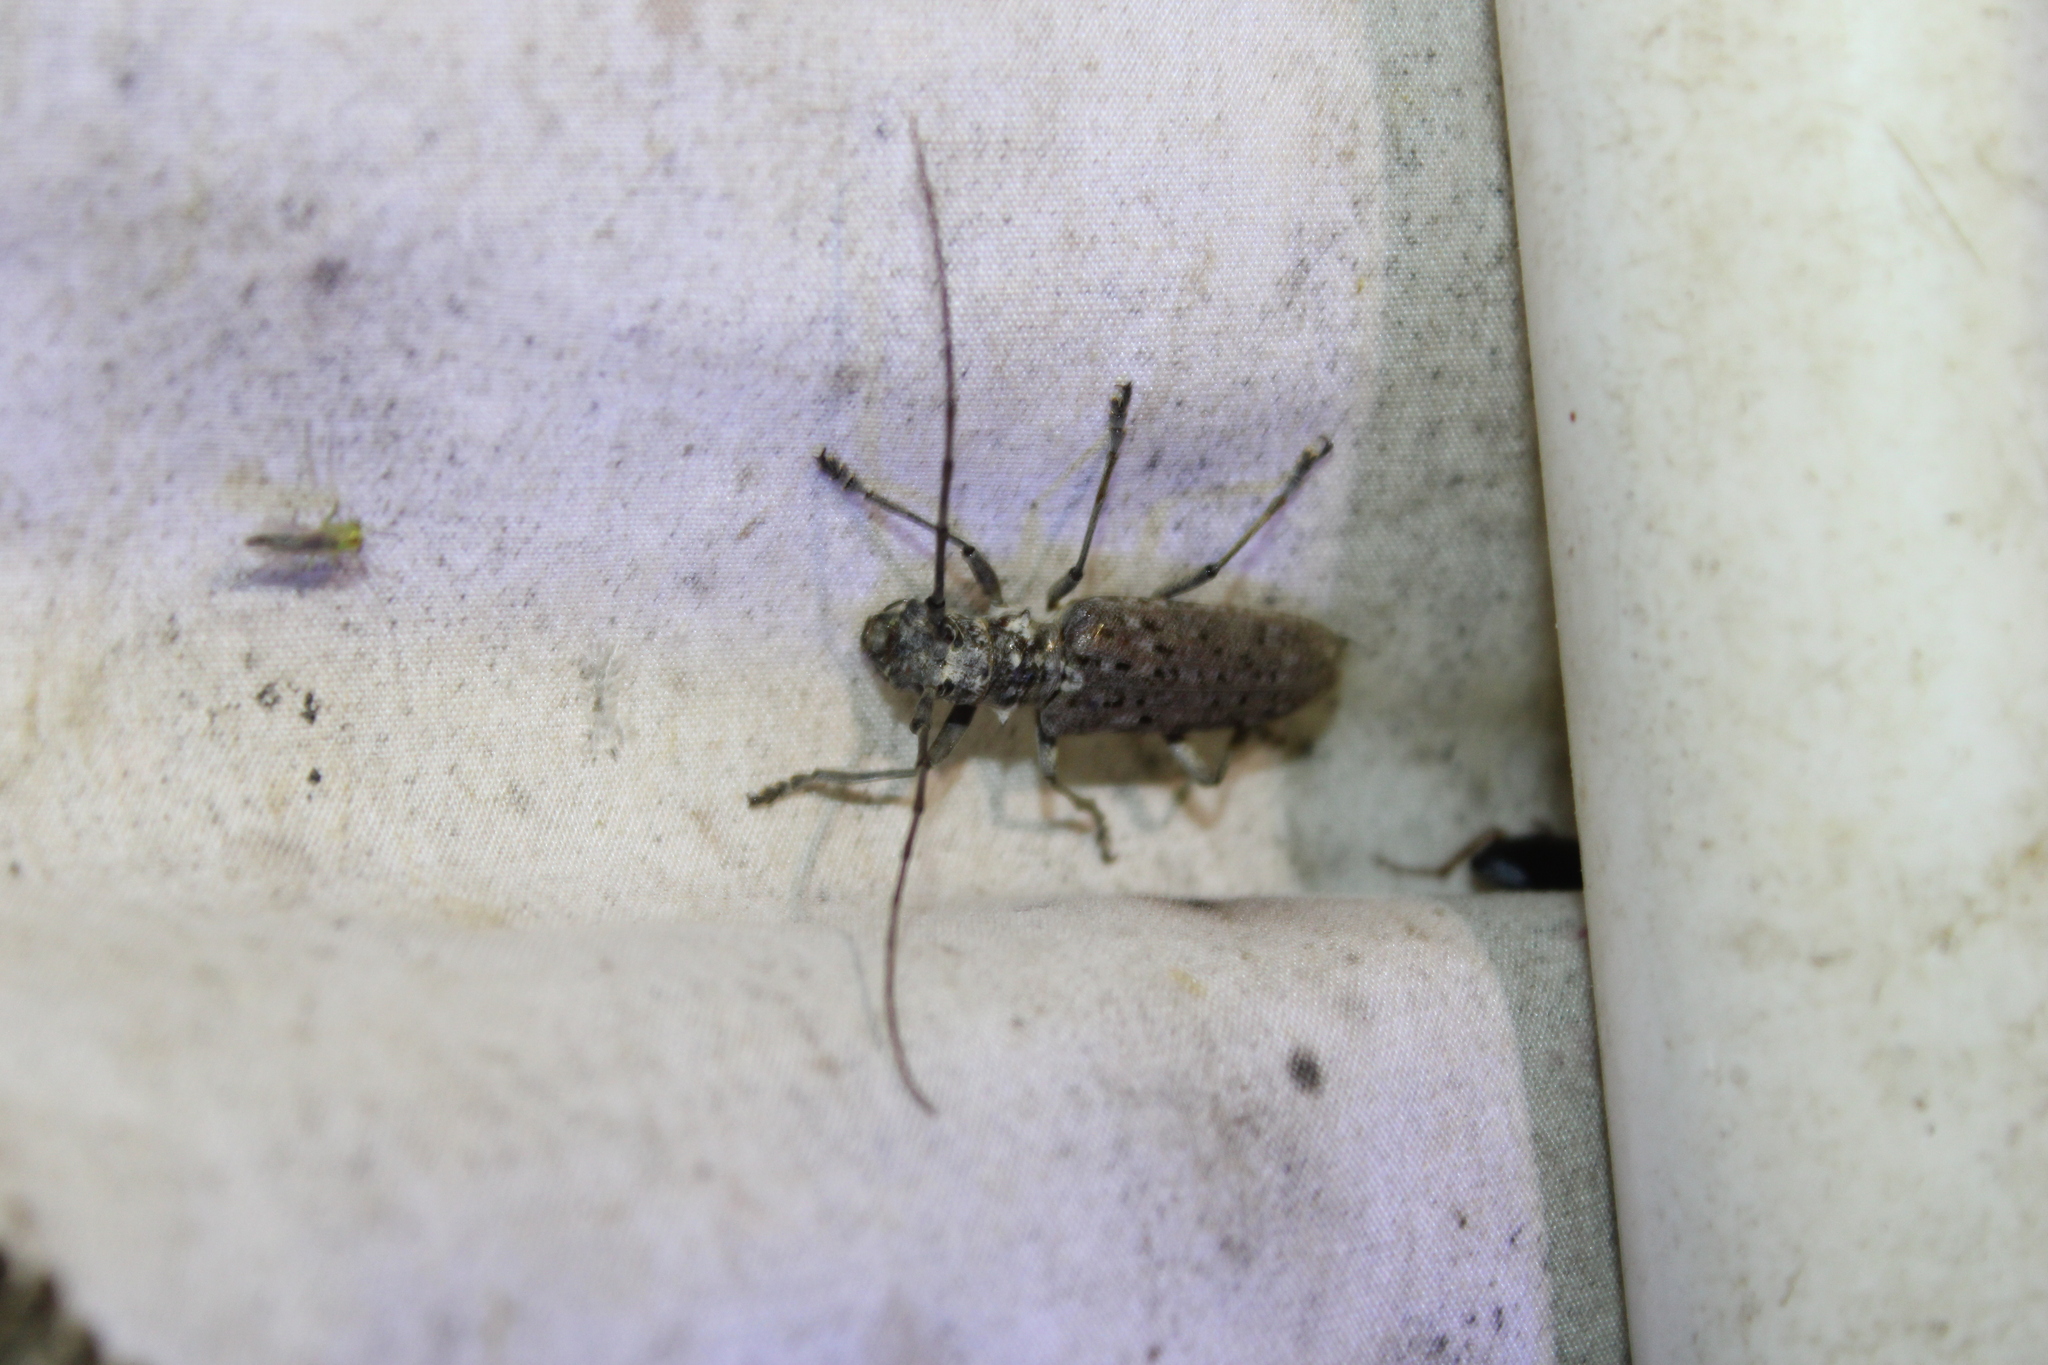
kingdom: Animalia
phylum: Arthropoda
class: Insecta
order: Coleoptera
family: Cerambycidae
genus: Monochamus
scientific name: Monochamus notatus
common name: Northeastern pine sawyer beetle
